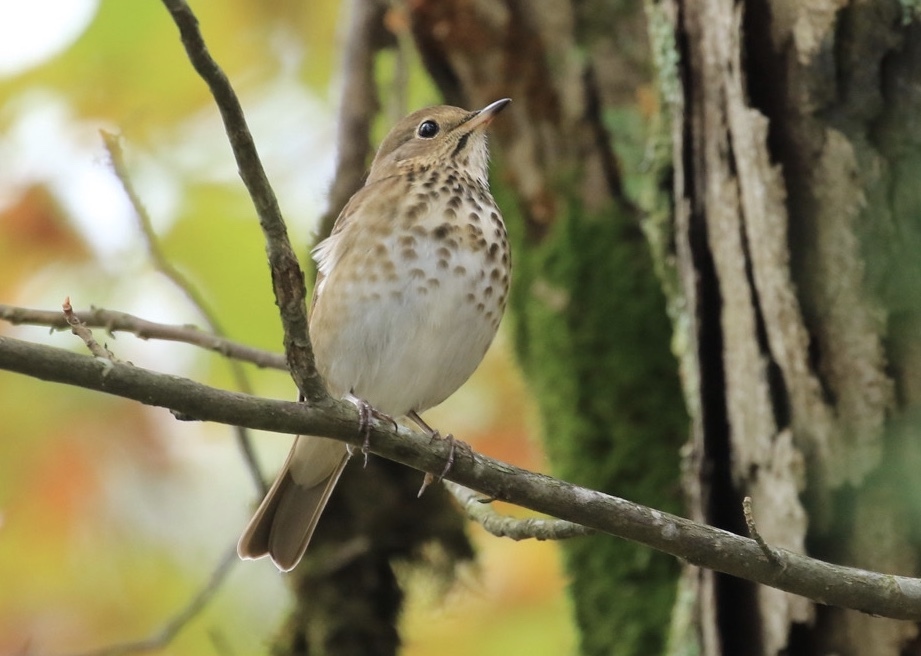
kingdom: Animalia
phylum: Chordata
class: Aves
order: Passeriformes
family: Turdidae
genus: Catharus
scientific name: Catharus ustulatus
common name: Swainson's thrush
